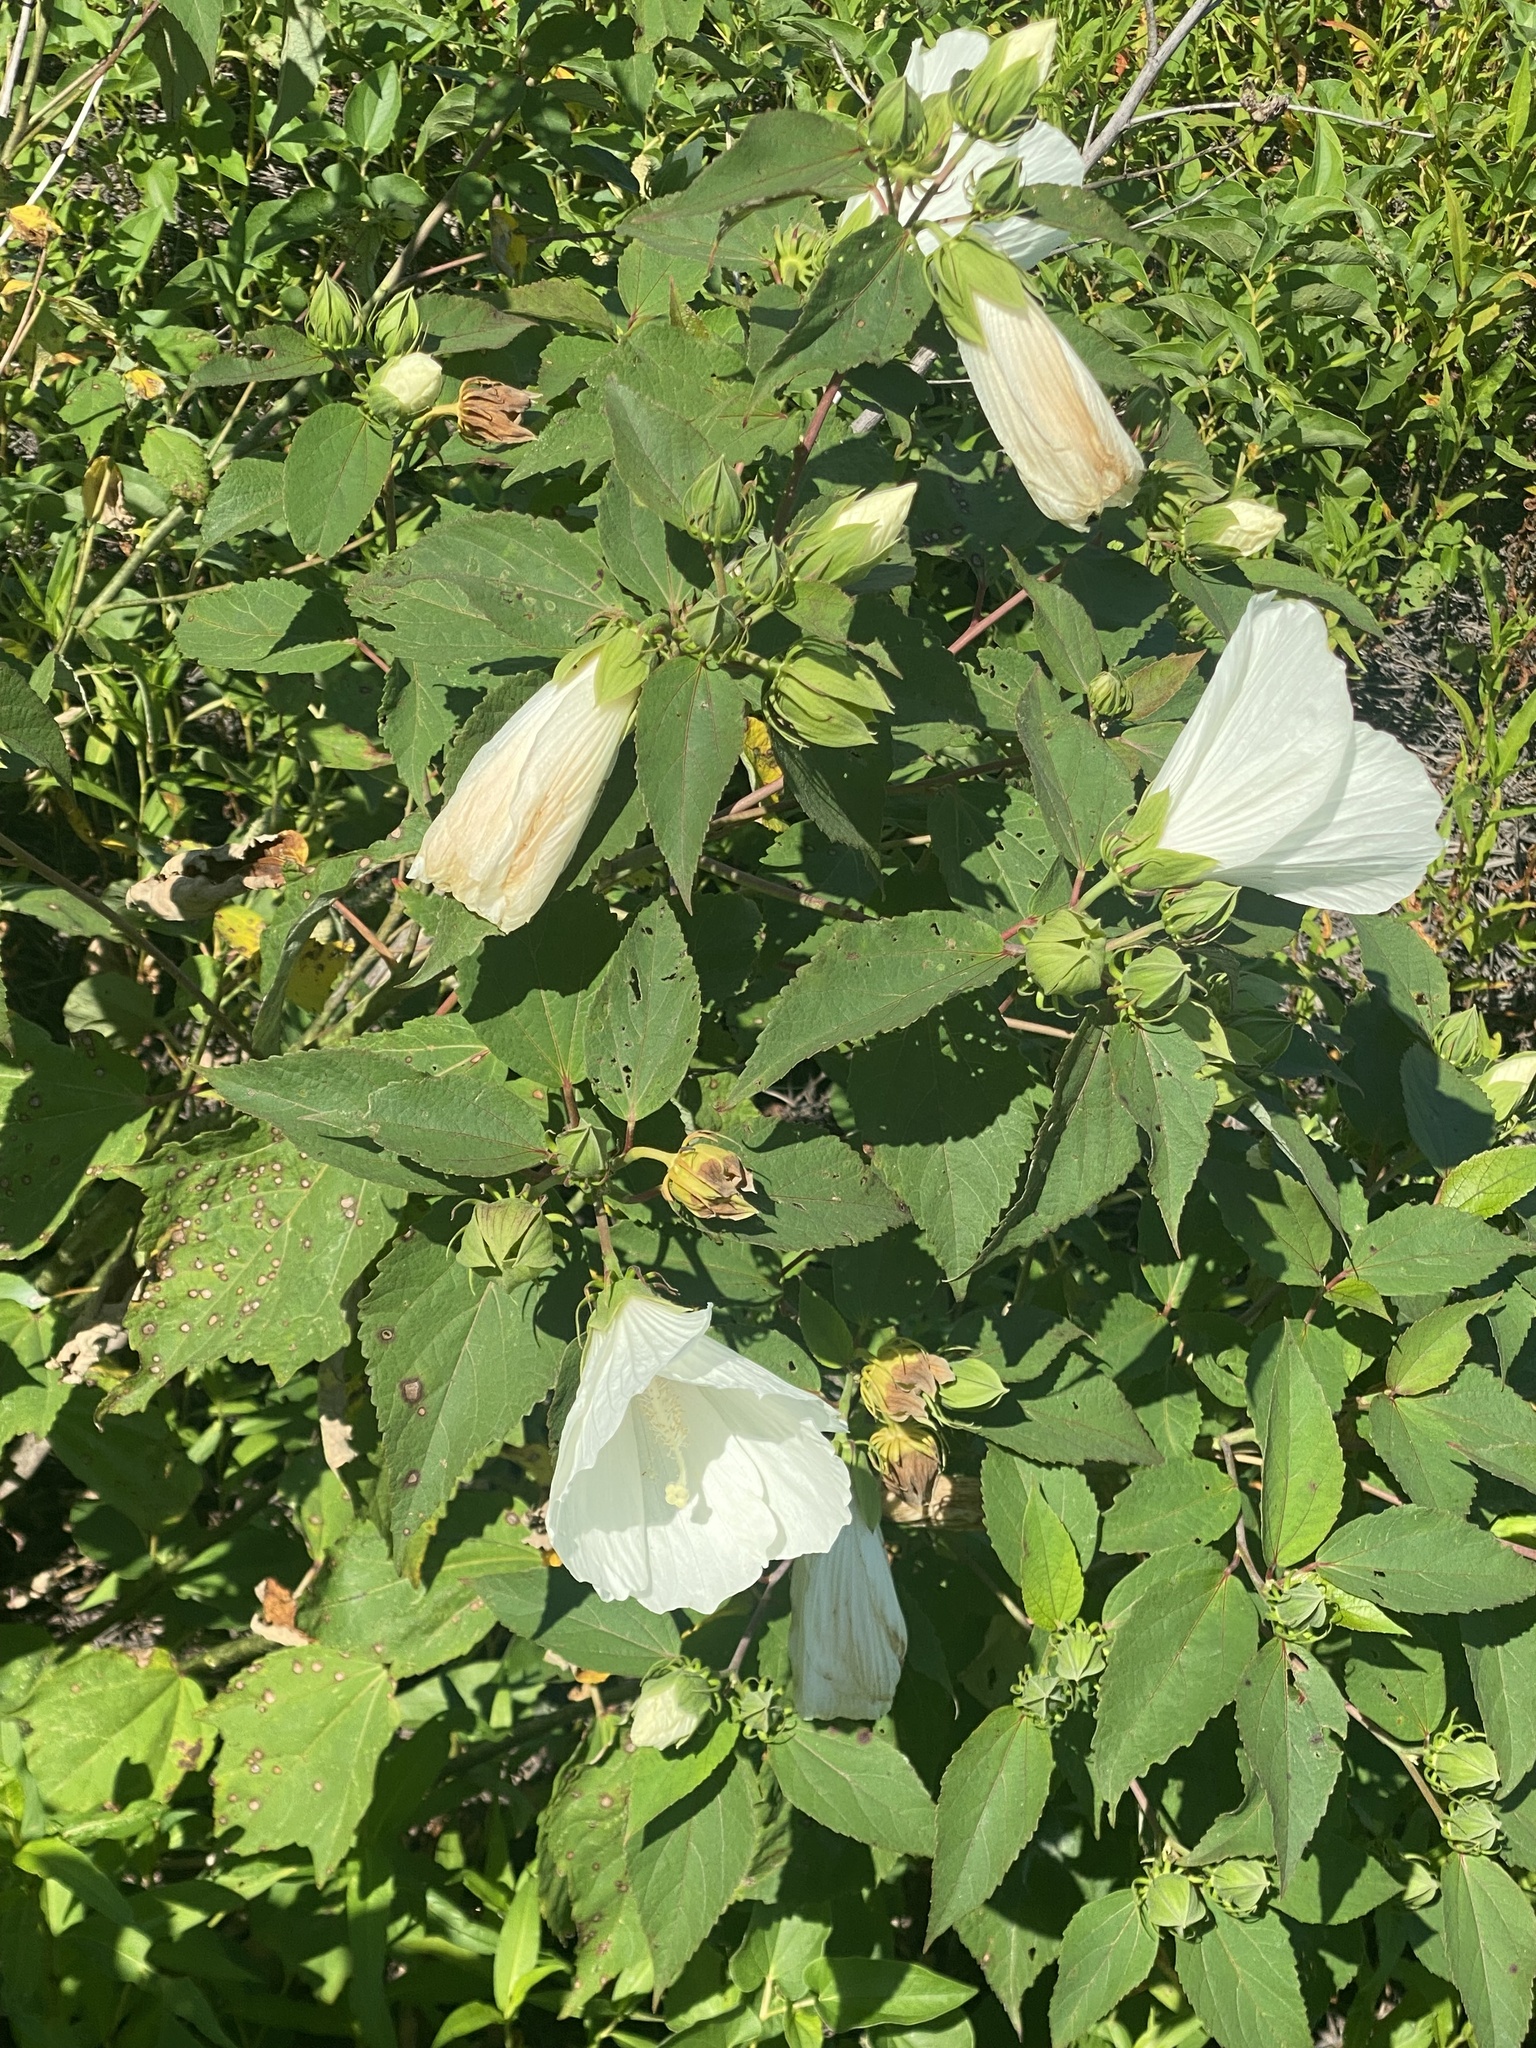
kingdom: Plantae
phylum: Tracheophyta
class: Magnoliopsida
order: Malvales
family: Malvaceae
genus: Hibiscus
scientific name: Hibiscus moscheutos
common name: Common rose-mallow
